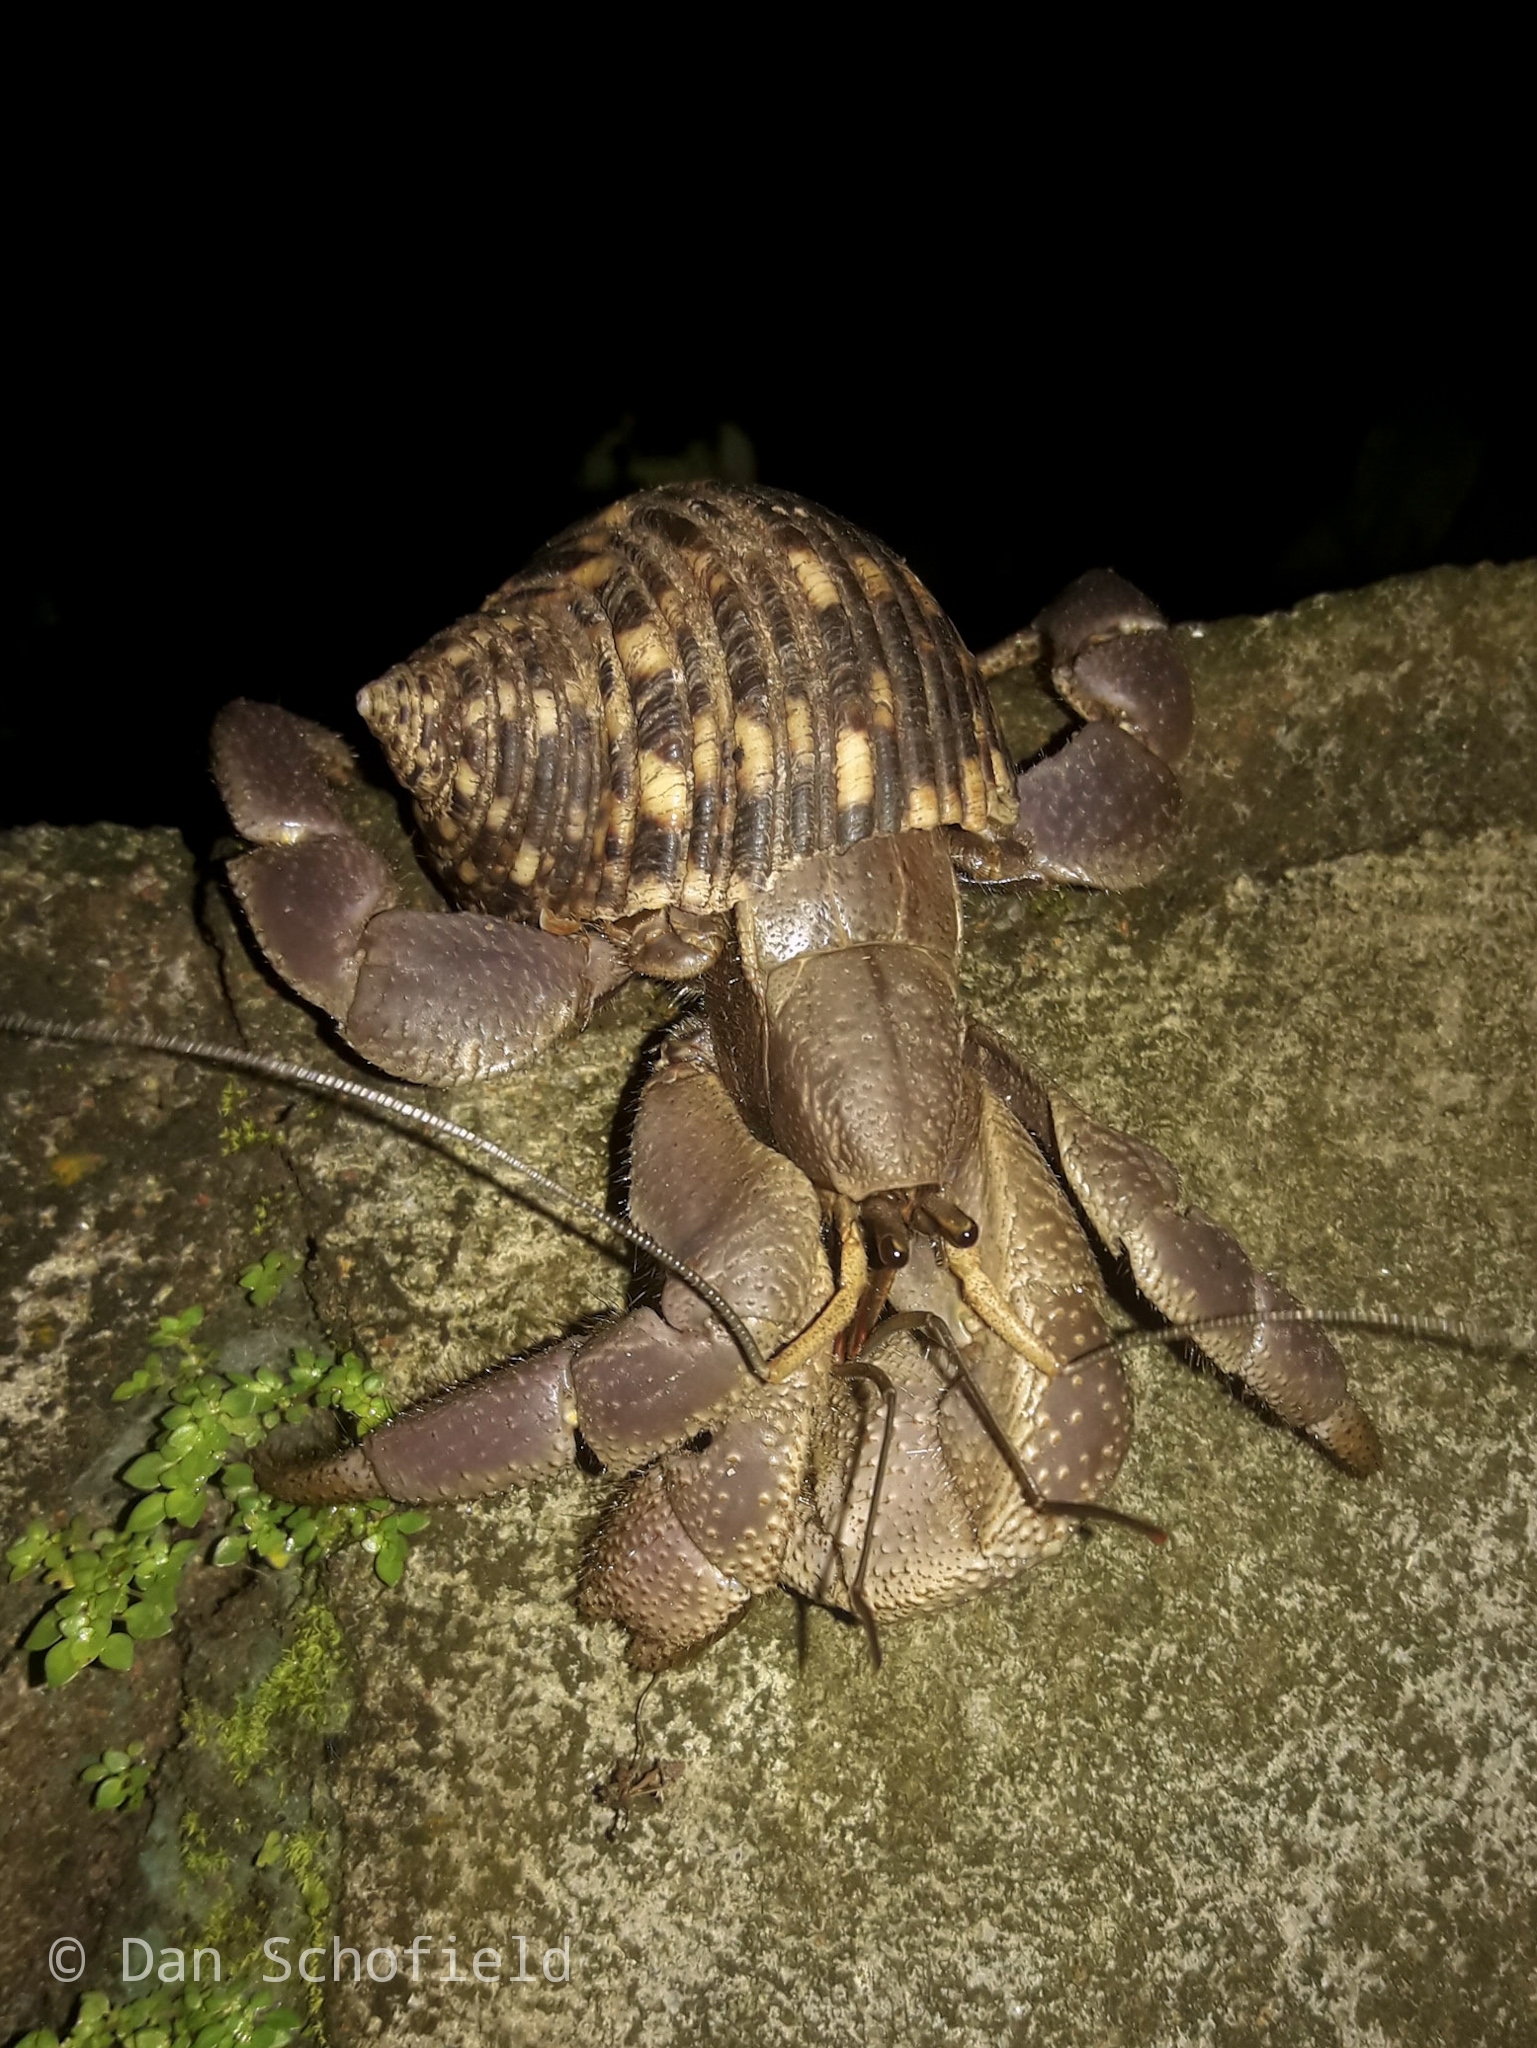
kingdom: Animalia
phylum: Arthropoda
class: Malacostraca
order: Decapoda
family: Coenobitidae
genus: Coenobita
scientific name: Coenobita brevimanus
